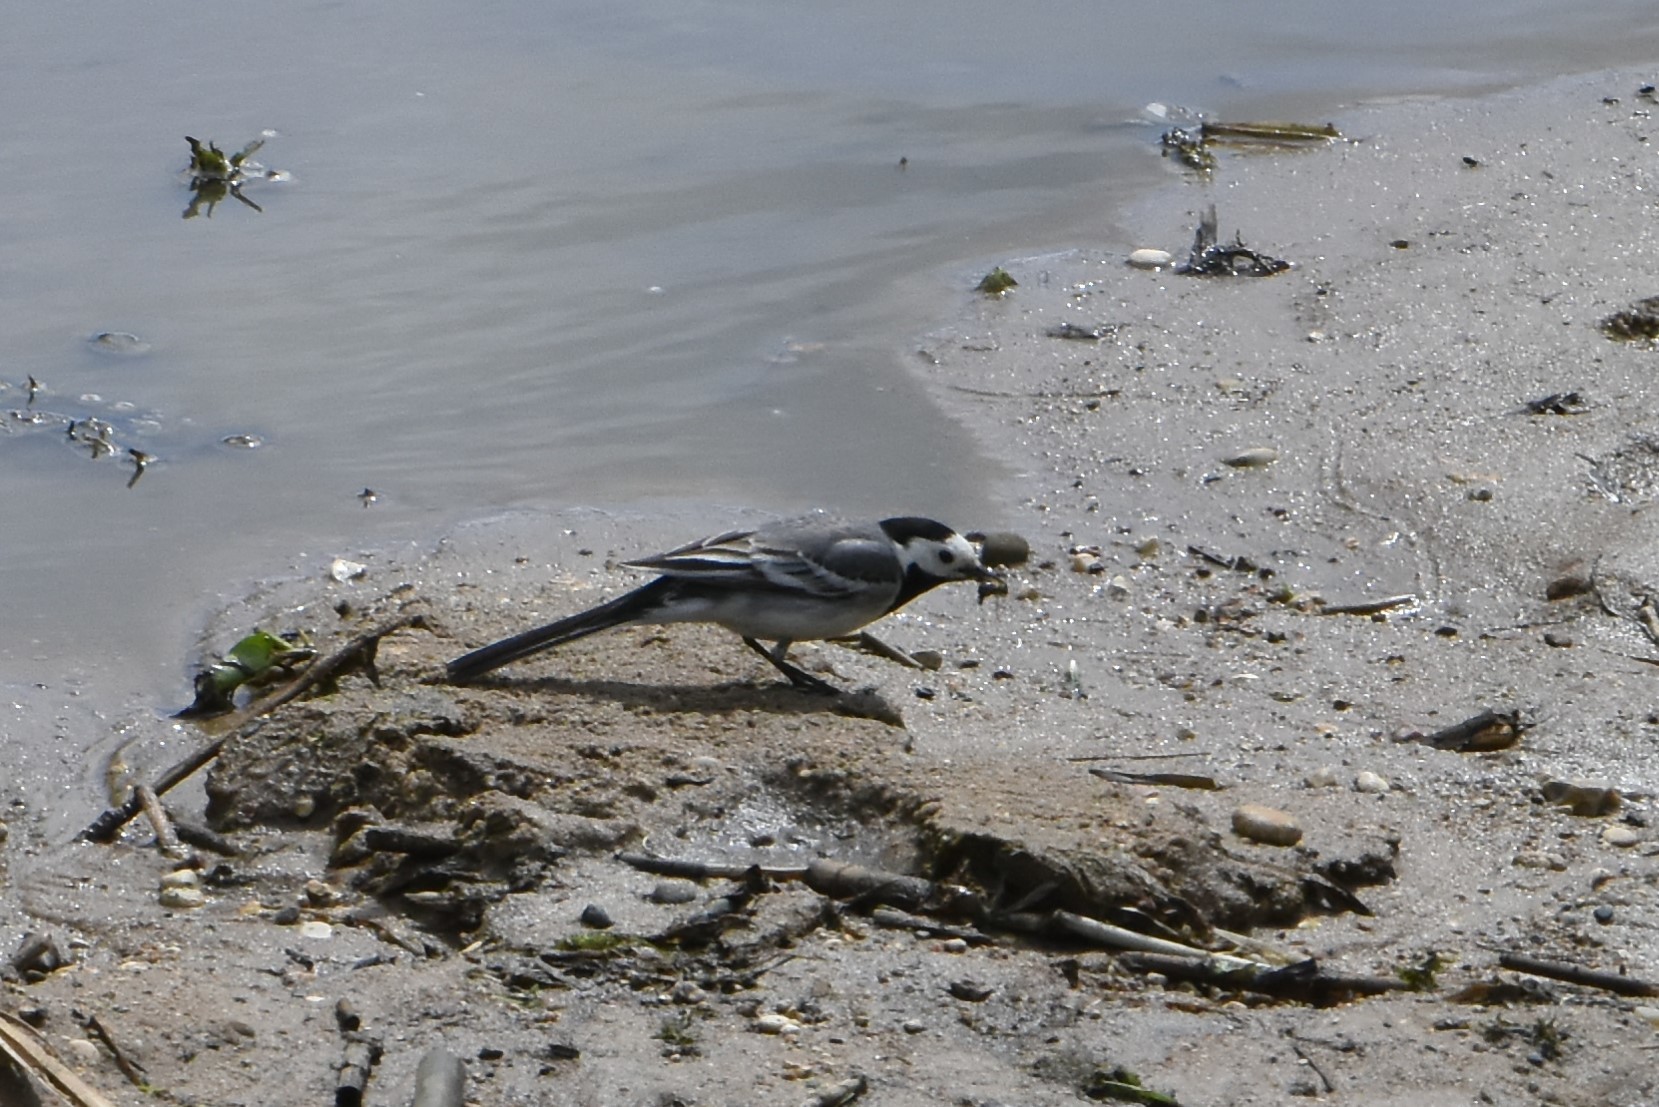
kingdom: Animalia
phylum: Chordata
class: Aves
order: Passeriformes
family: Motacillidae
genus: Motacilla
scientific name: Motacilla alba
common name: White wagtail
